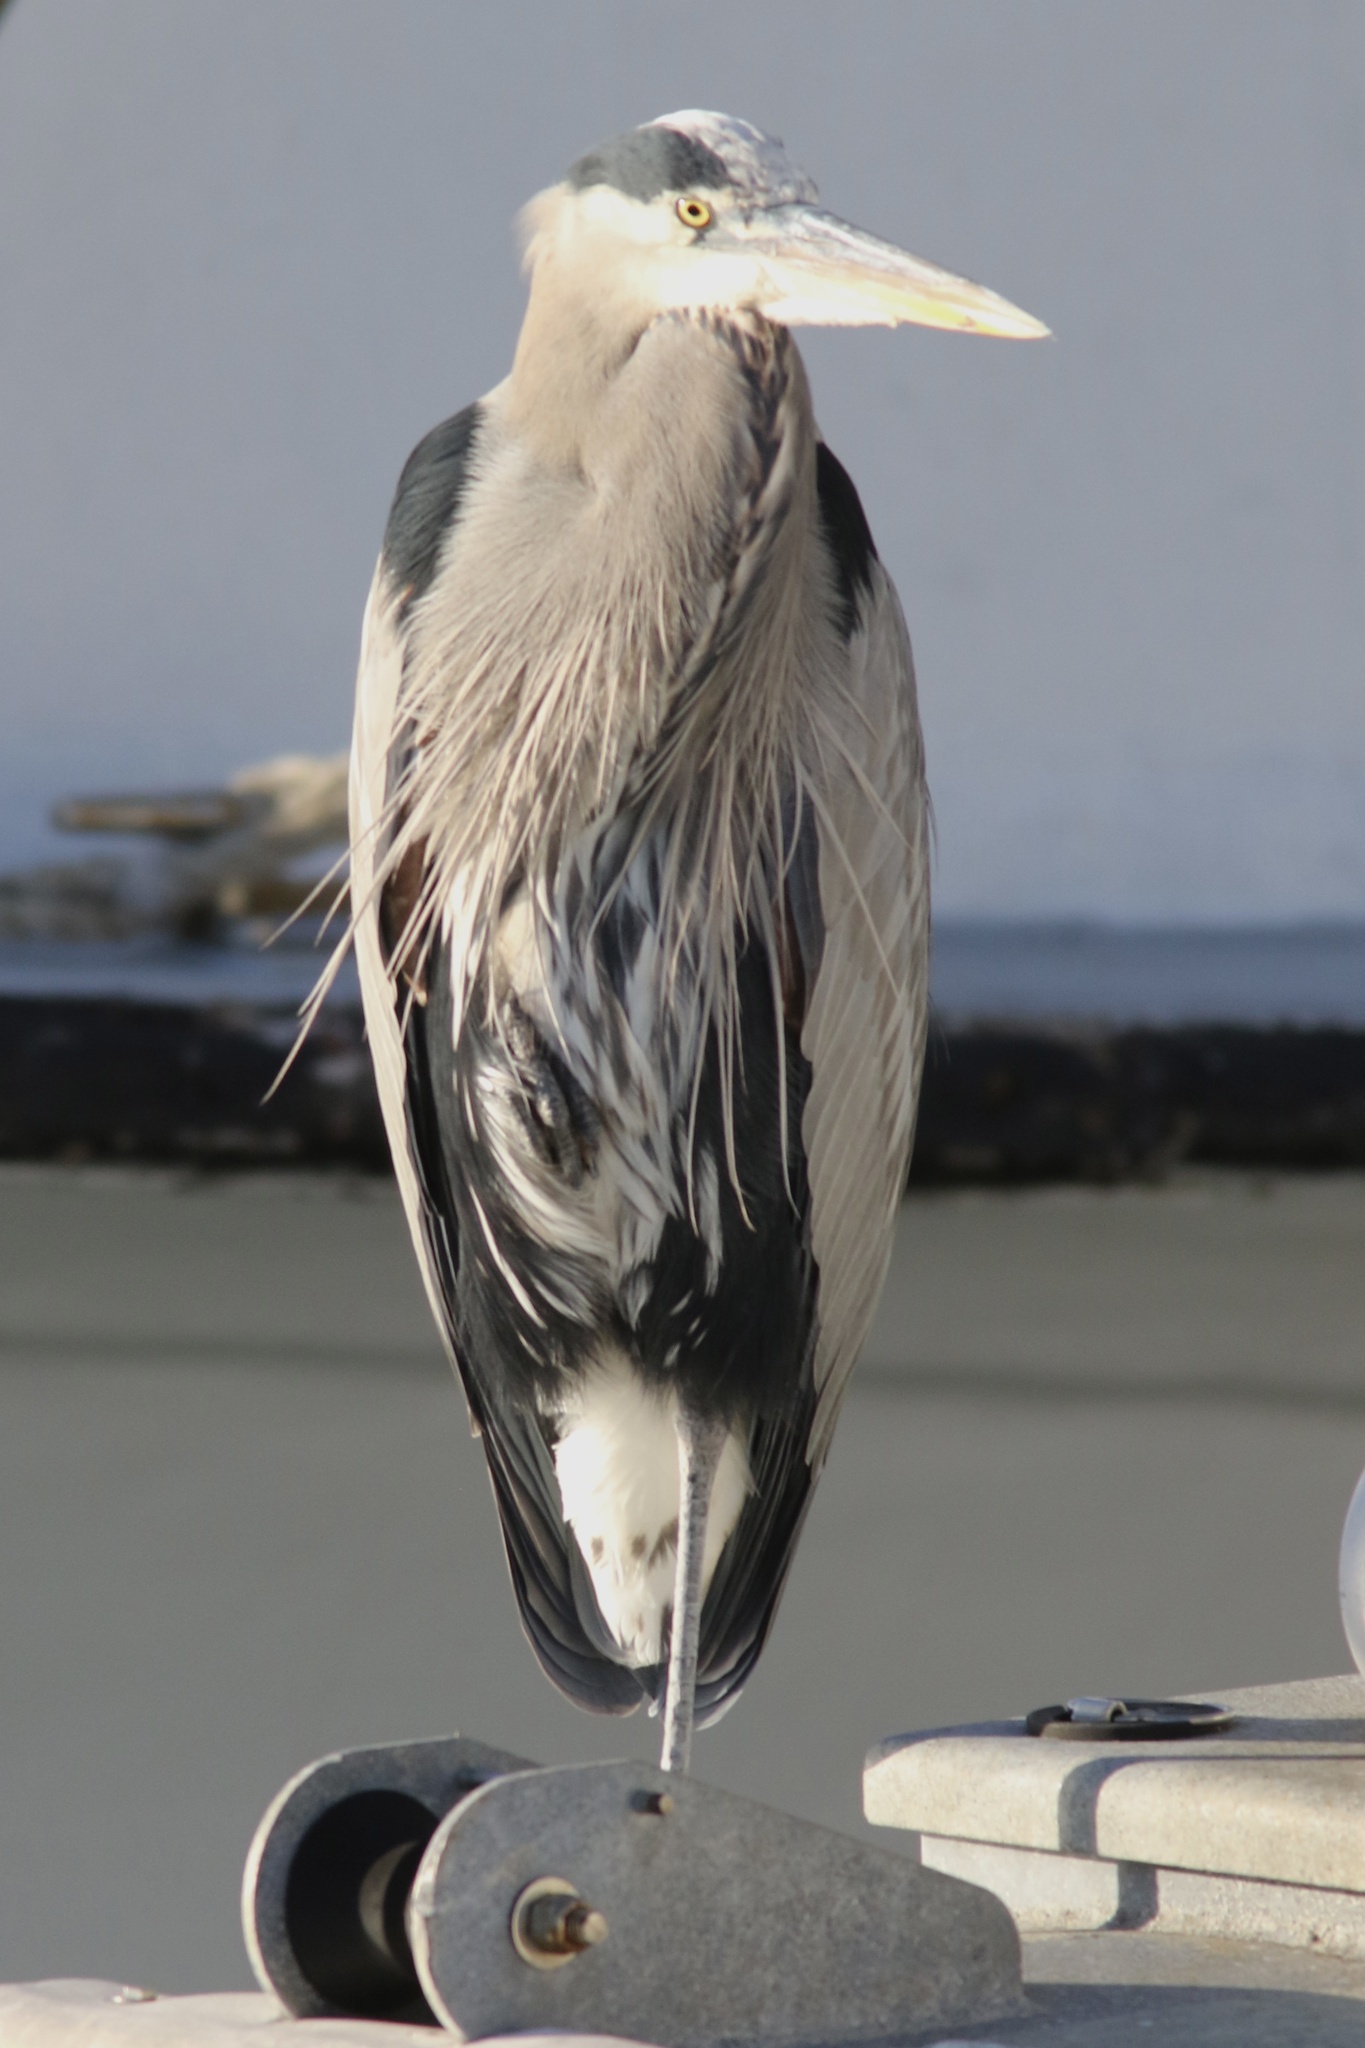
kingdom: Animalia
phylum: Chordata
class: Aves
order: Pelecaniformes
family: Ardeidae
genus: Ardea
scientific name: Ardea herodias
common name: Great blue heron
